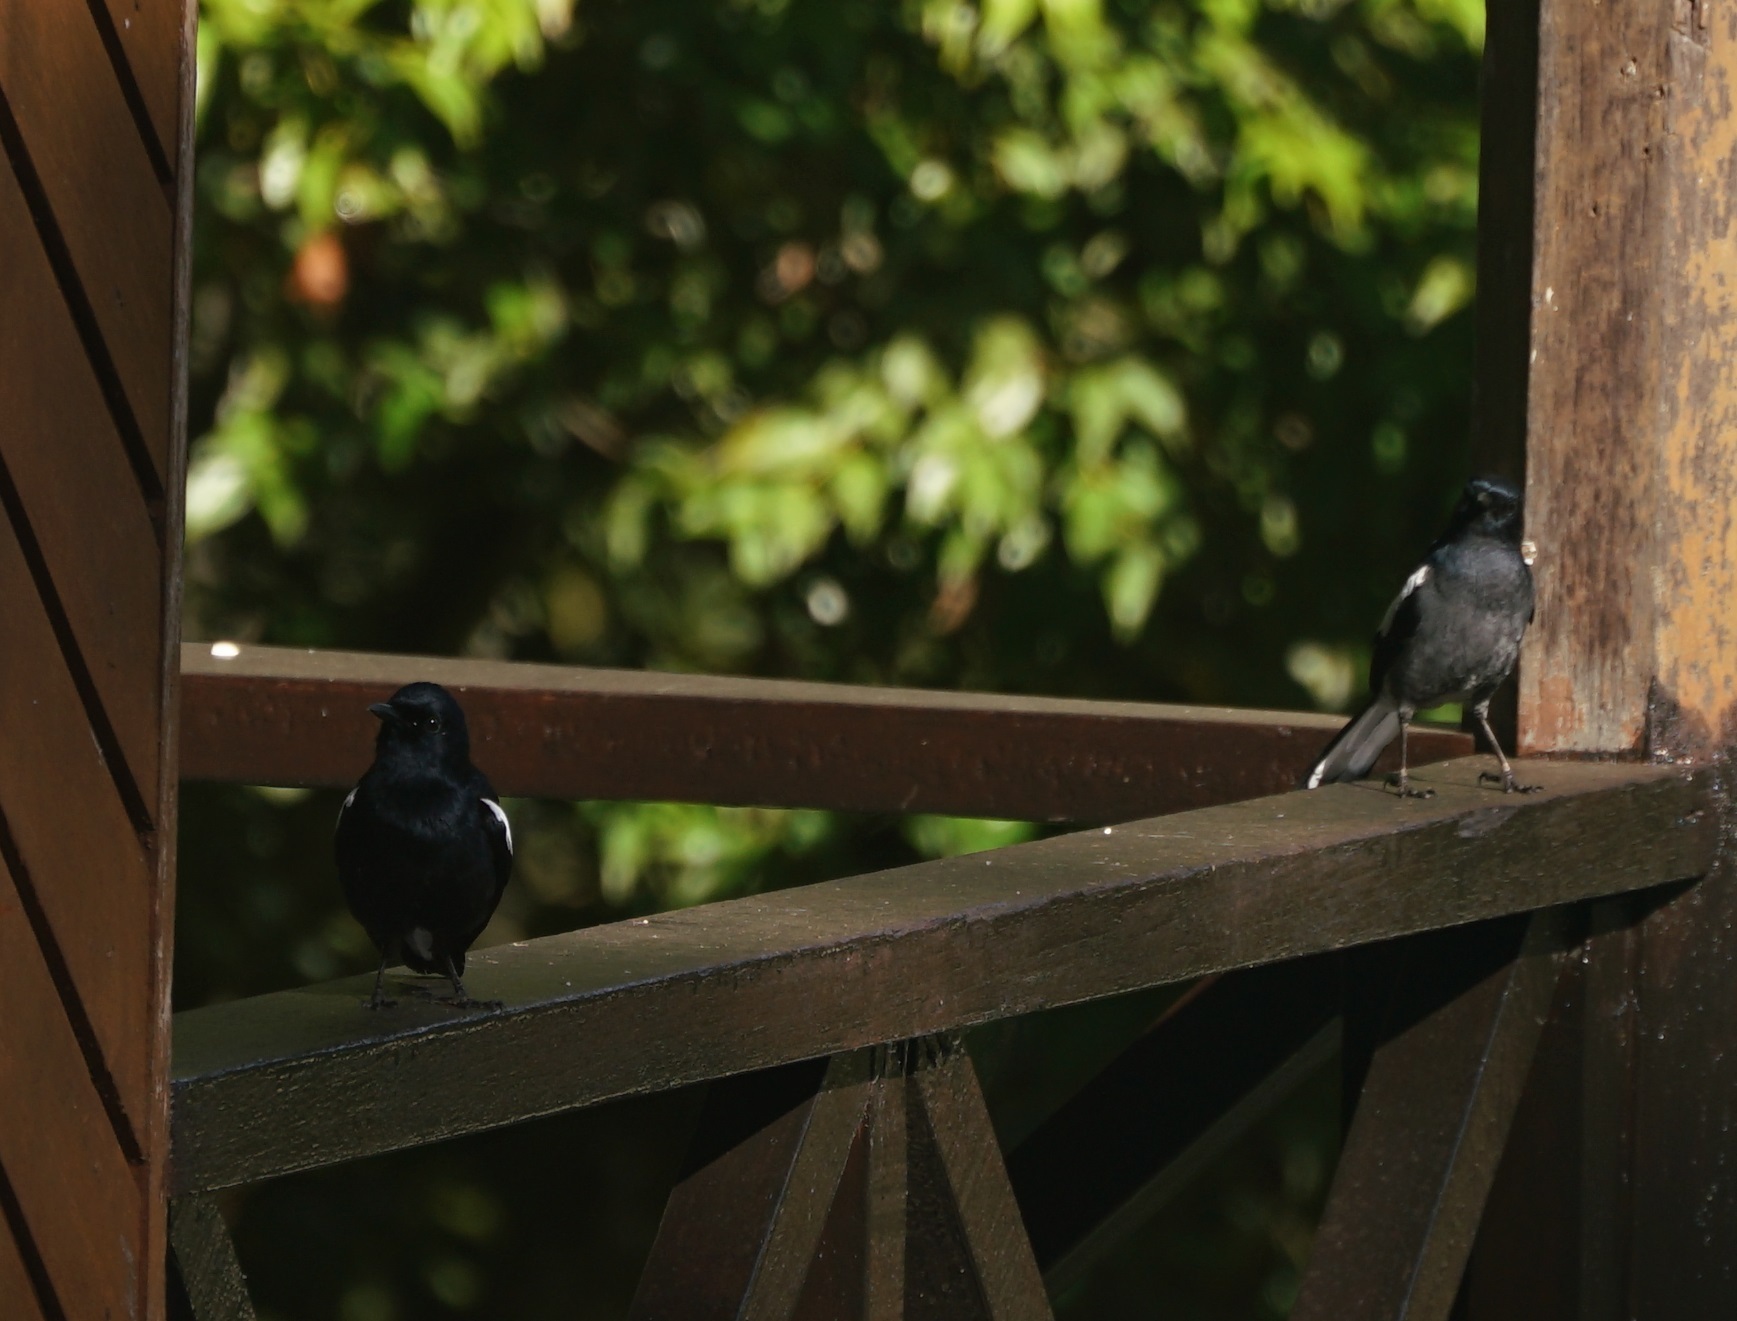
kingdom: Animalia
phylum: Chordata
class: Aves
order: Passeriformes
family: Muscicapidae
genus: Copsychus
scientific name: Copsychus saularis
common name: Oriental magpie-robin
